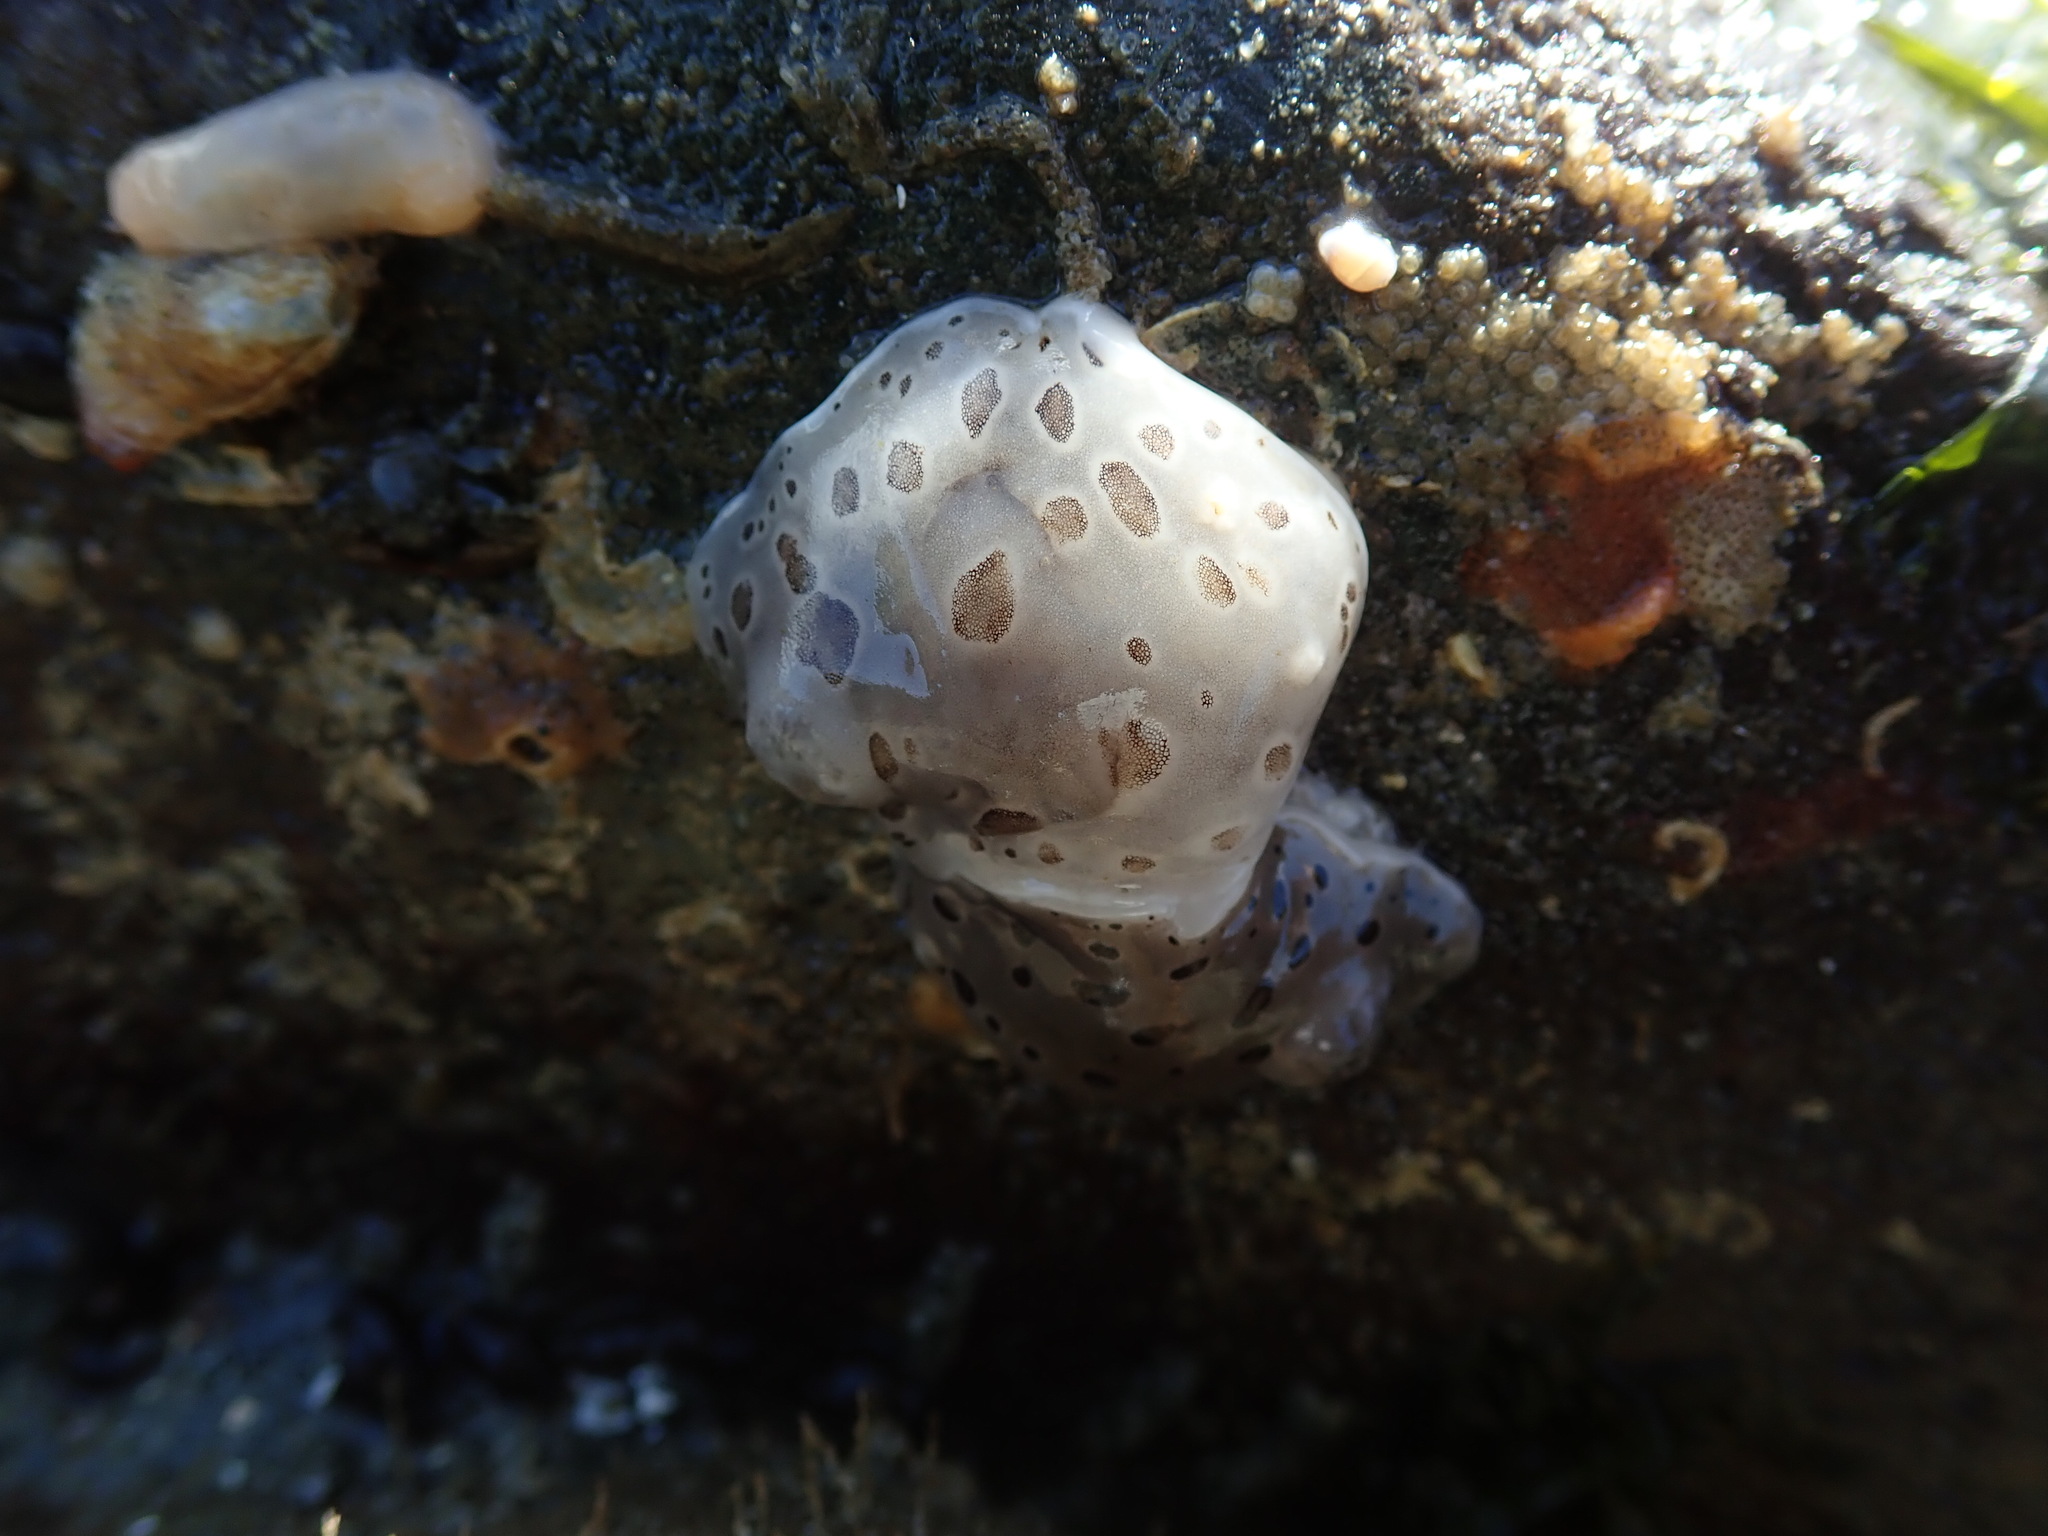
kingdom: Animalia
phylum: Mollusca
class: Gastropoda
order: Nudibranchia
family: Discodorididae
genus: Diaulula
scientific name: Diaulula odonoghuei
